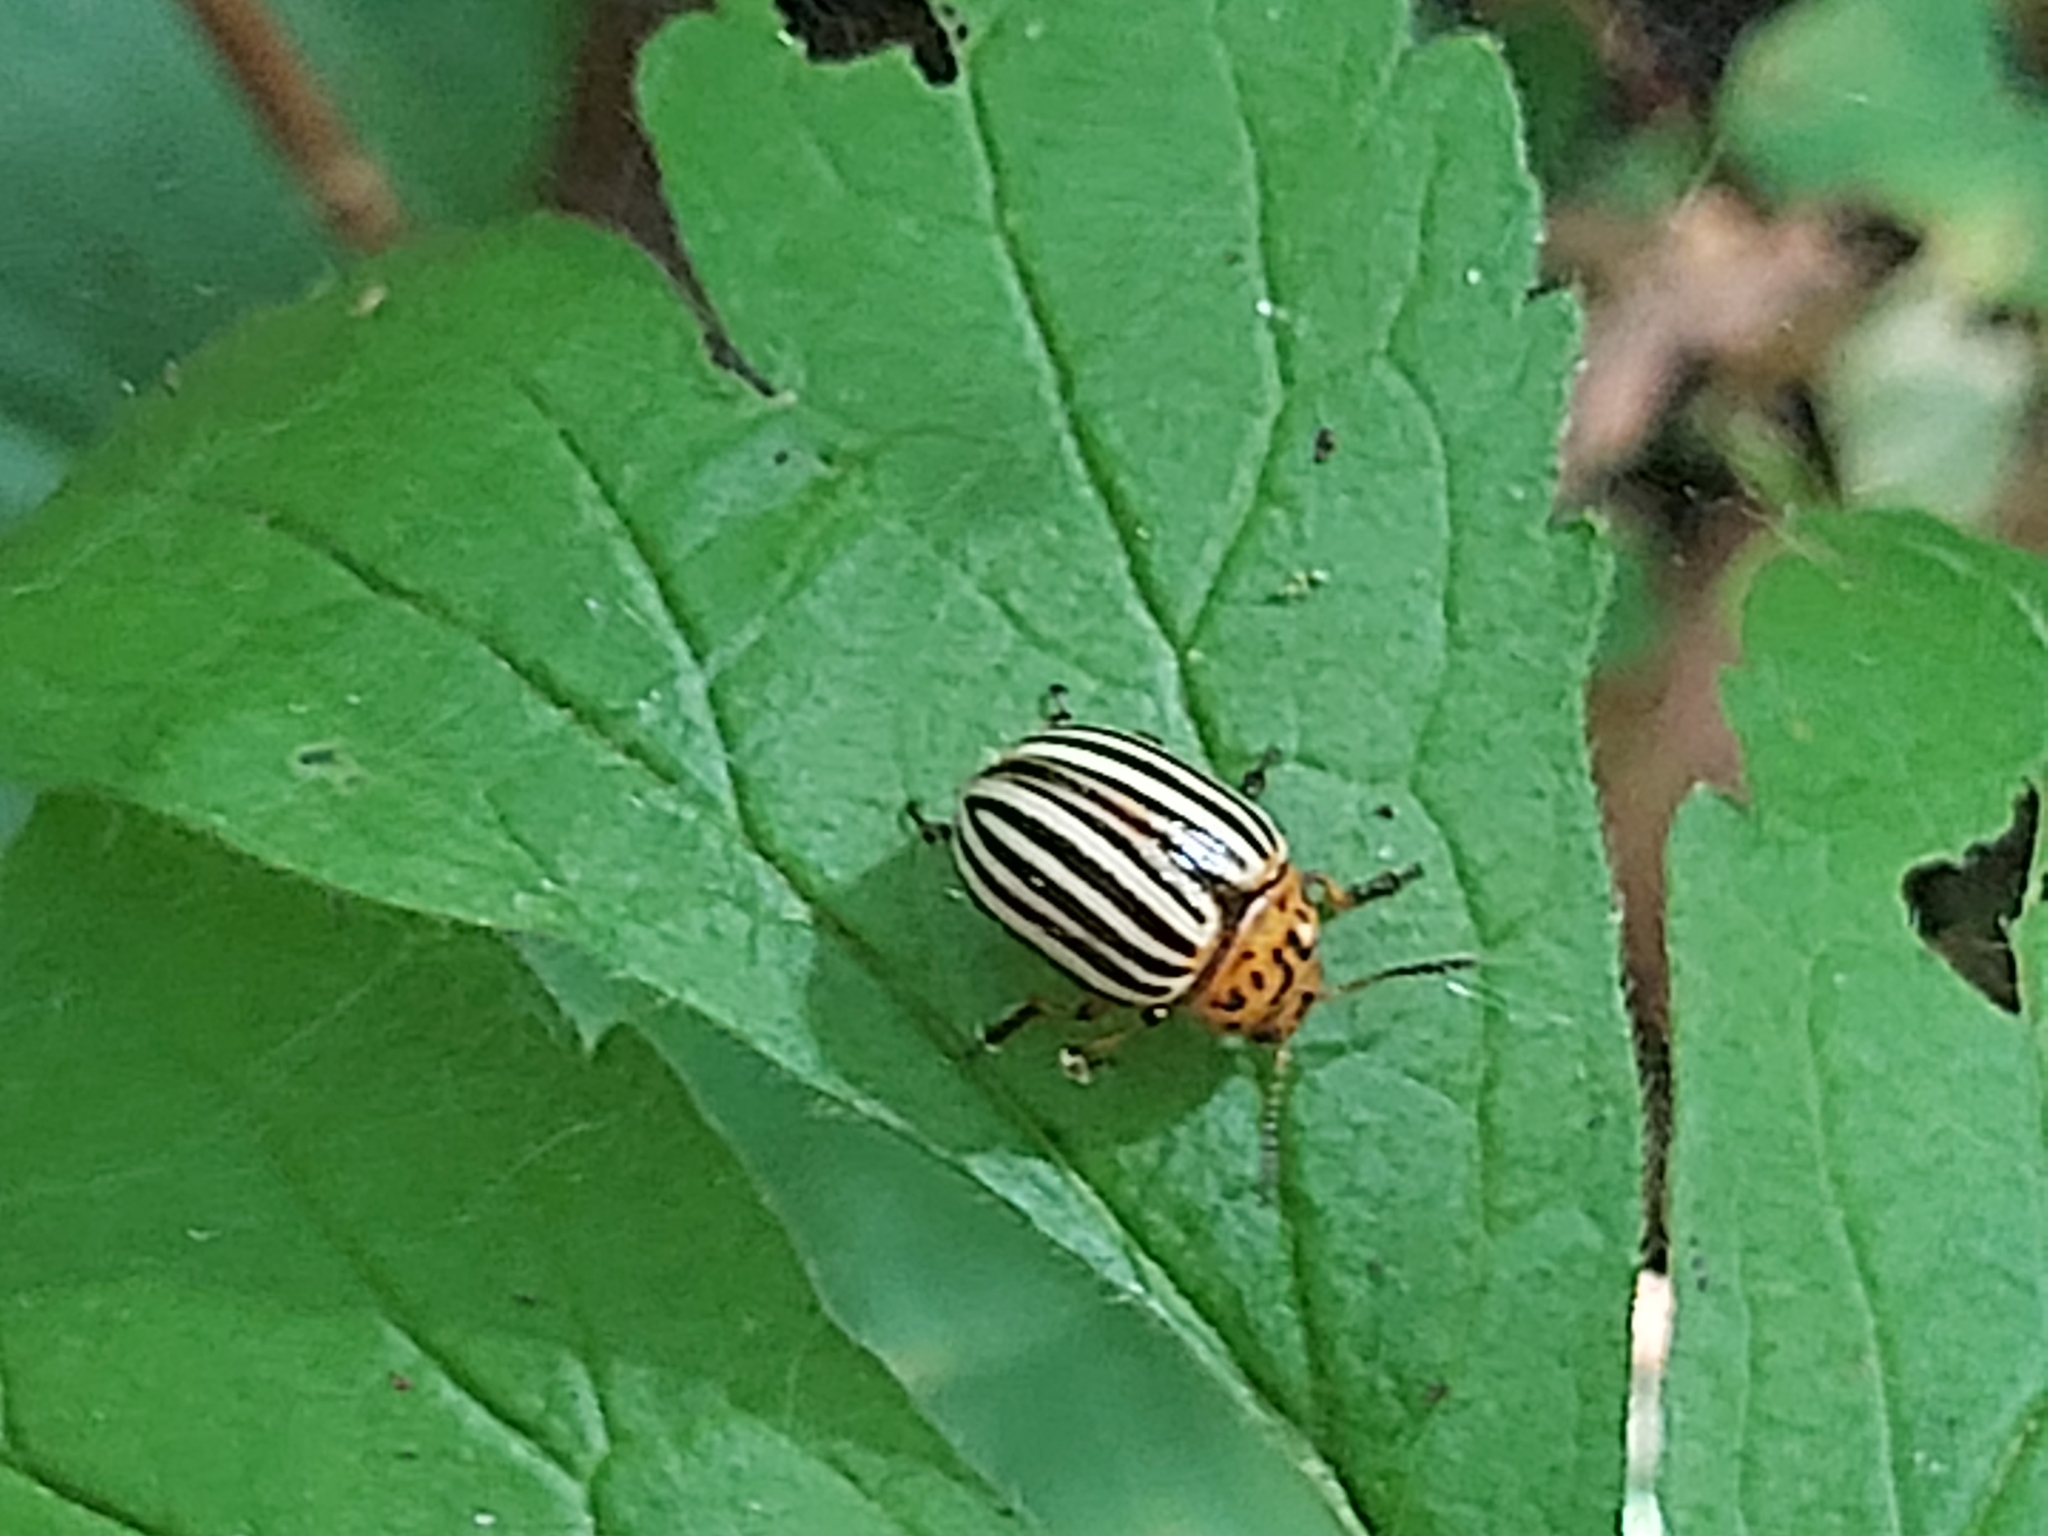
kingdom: Animalia
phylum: Arthropoda
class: Insecta
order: Coleoptera
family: Chrysomelidae
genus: Leptinotarsa
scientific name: Leptinotarsa decemlineata
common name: Colorado potato beetle
